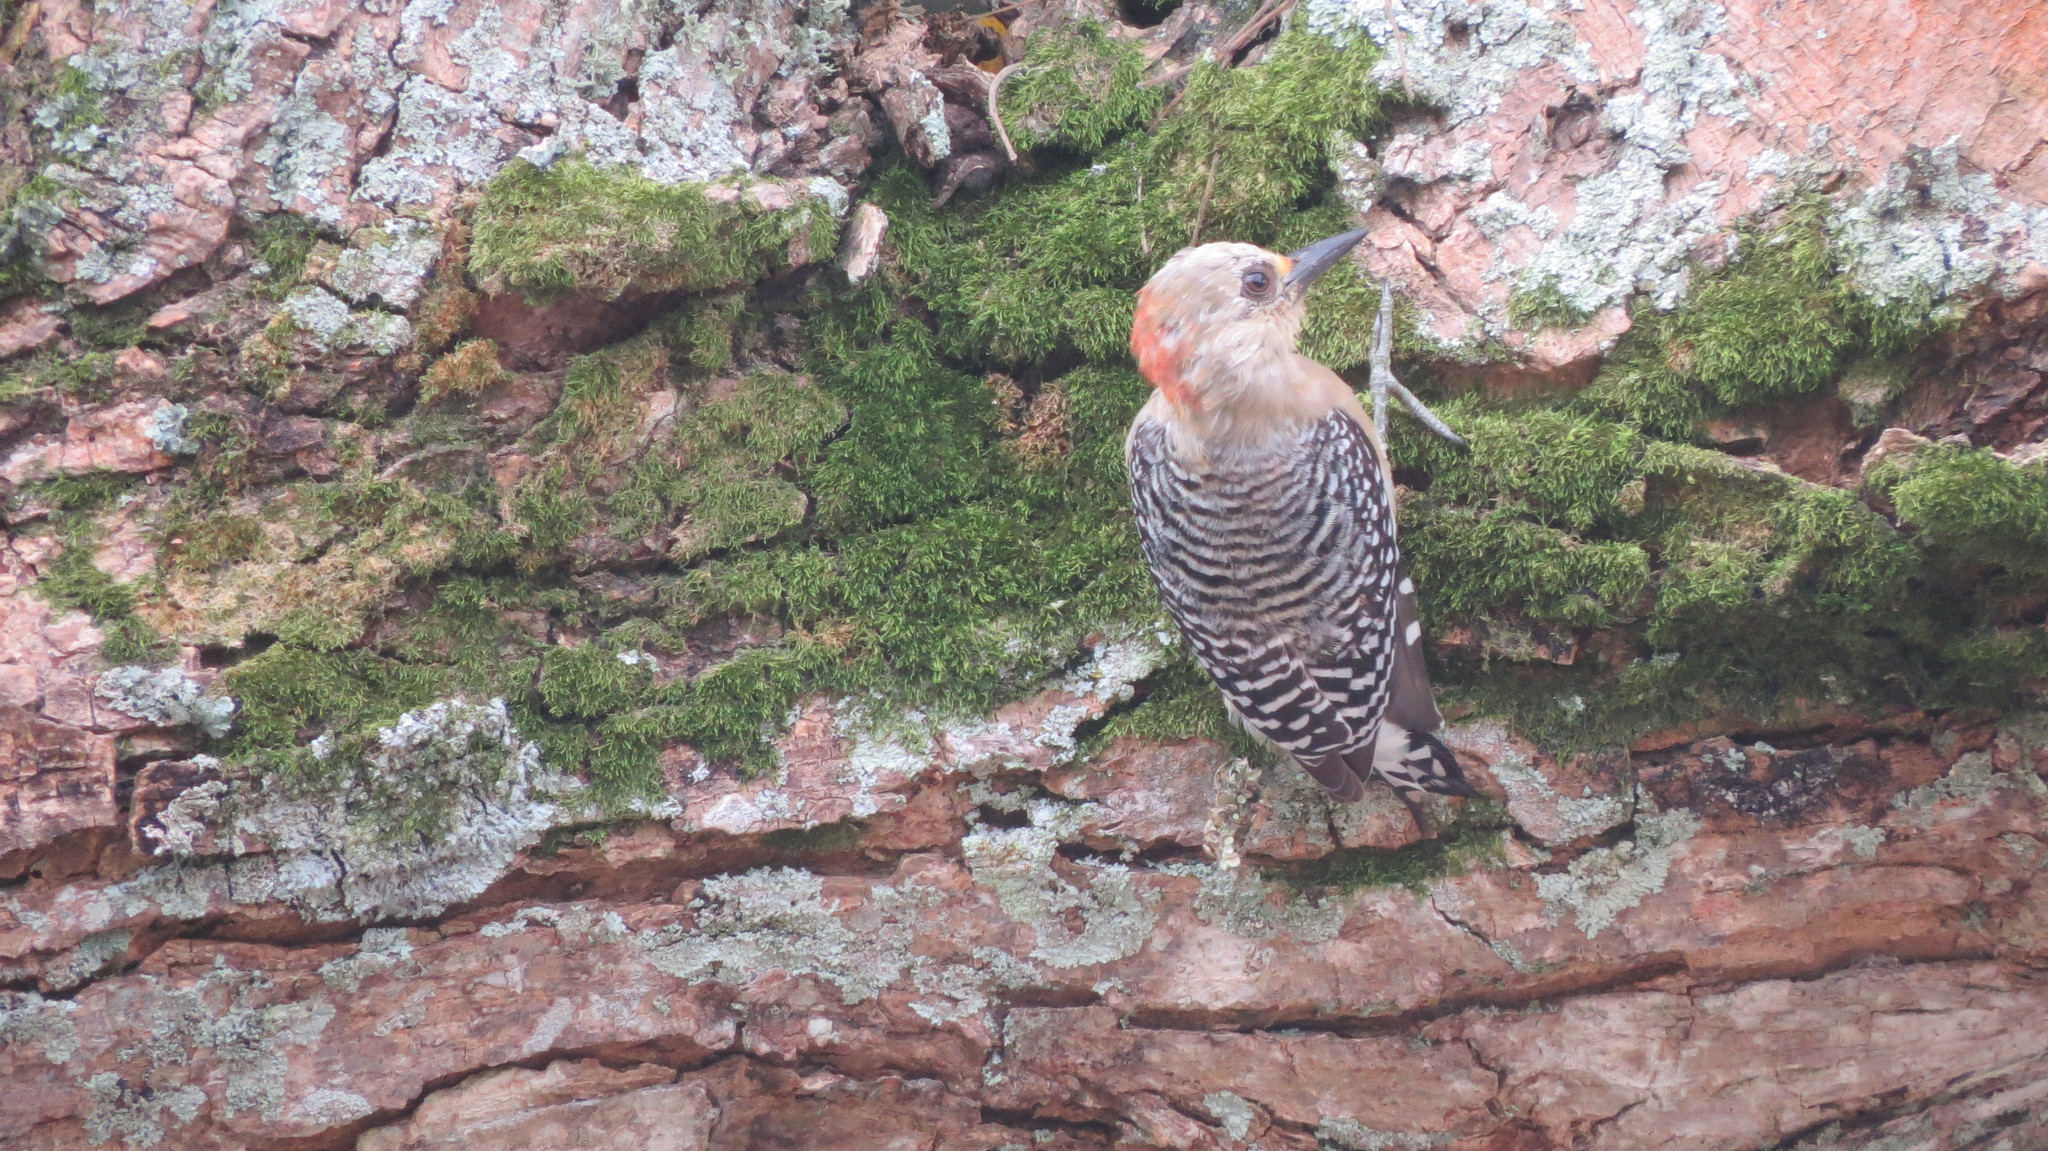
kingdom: Animalia
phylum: Chordata
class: Aves
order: Piciformes
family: Picidae
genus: Melanerpes
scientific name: Melanerpes rubricapillus
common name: Red-crowned woodpecker
